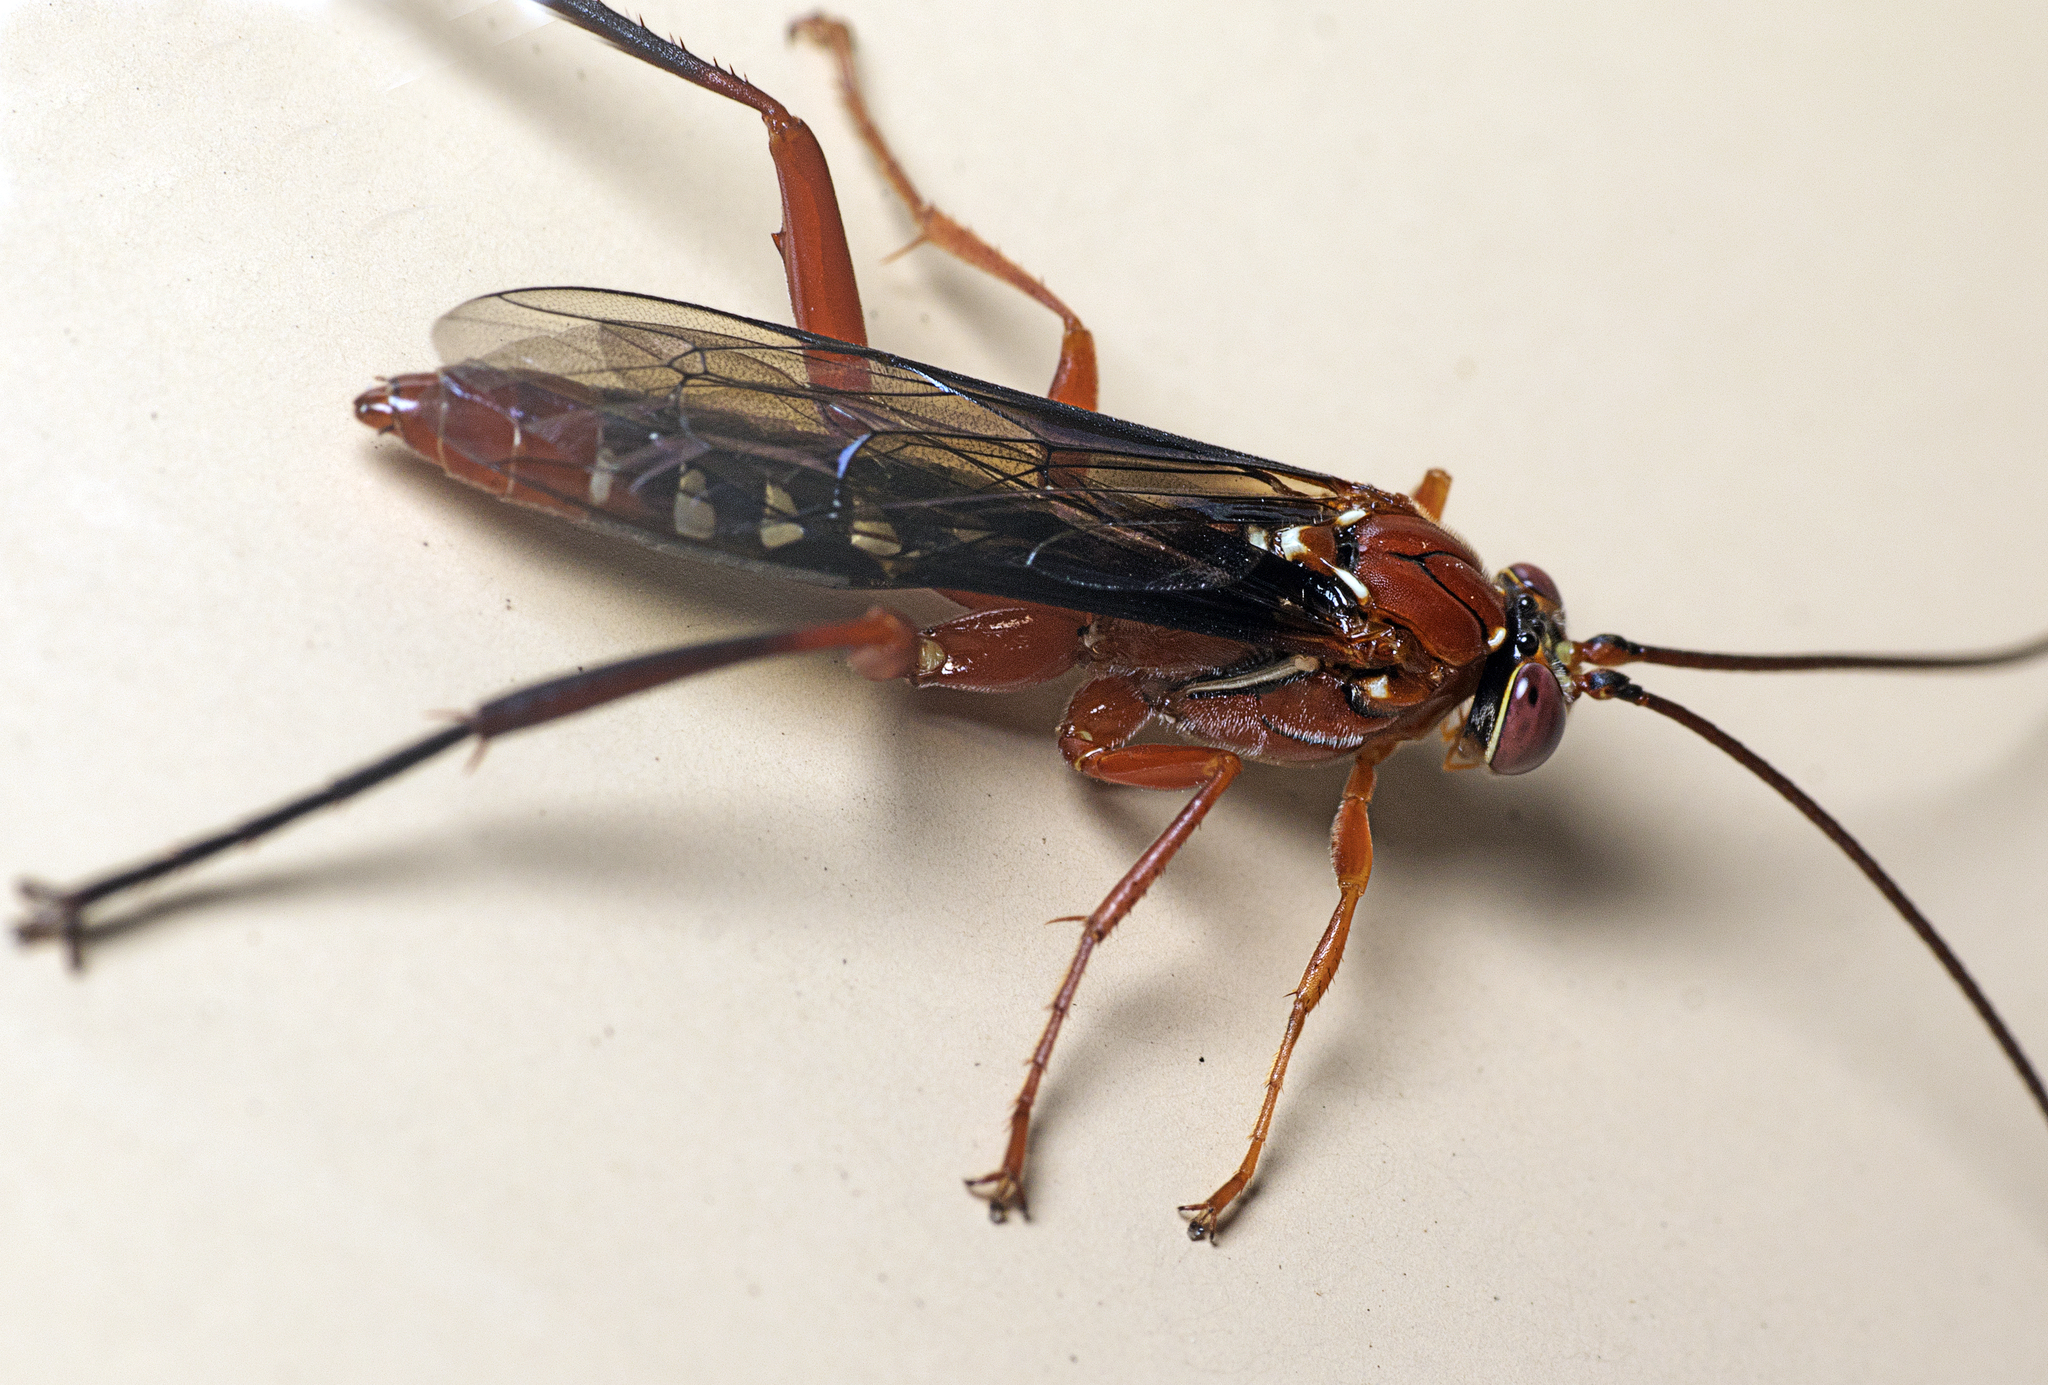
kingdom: Animalia
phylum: Arthropoda
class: Insecta
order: Hymenoptera
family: Ichneumonidae
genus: Lissopimpla
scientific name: Lissopimpla excelsa
